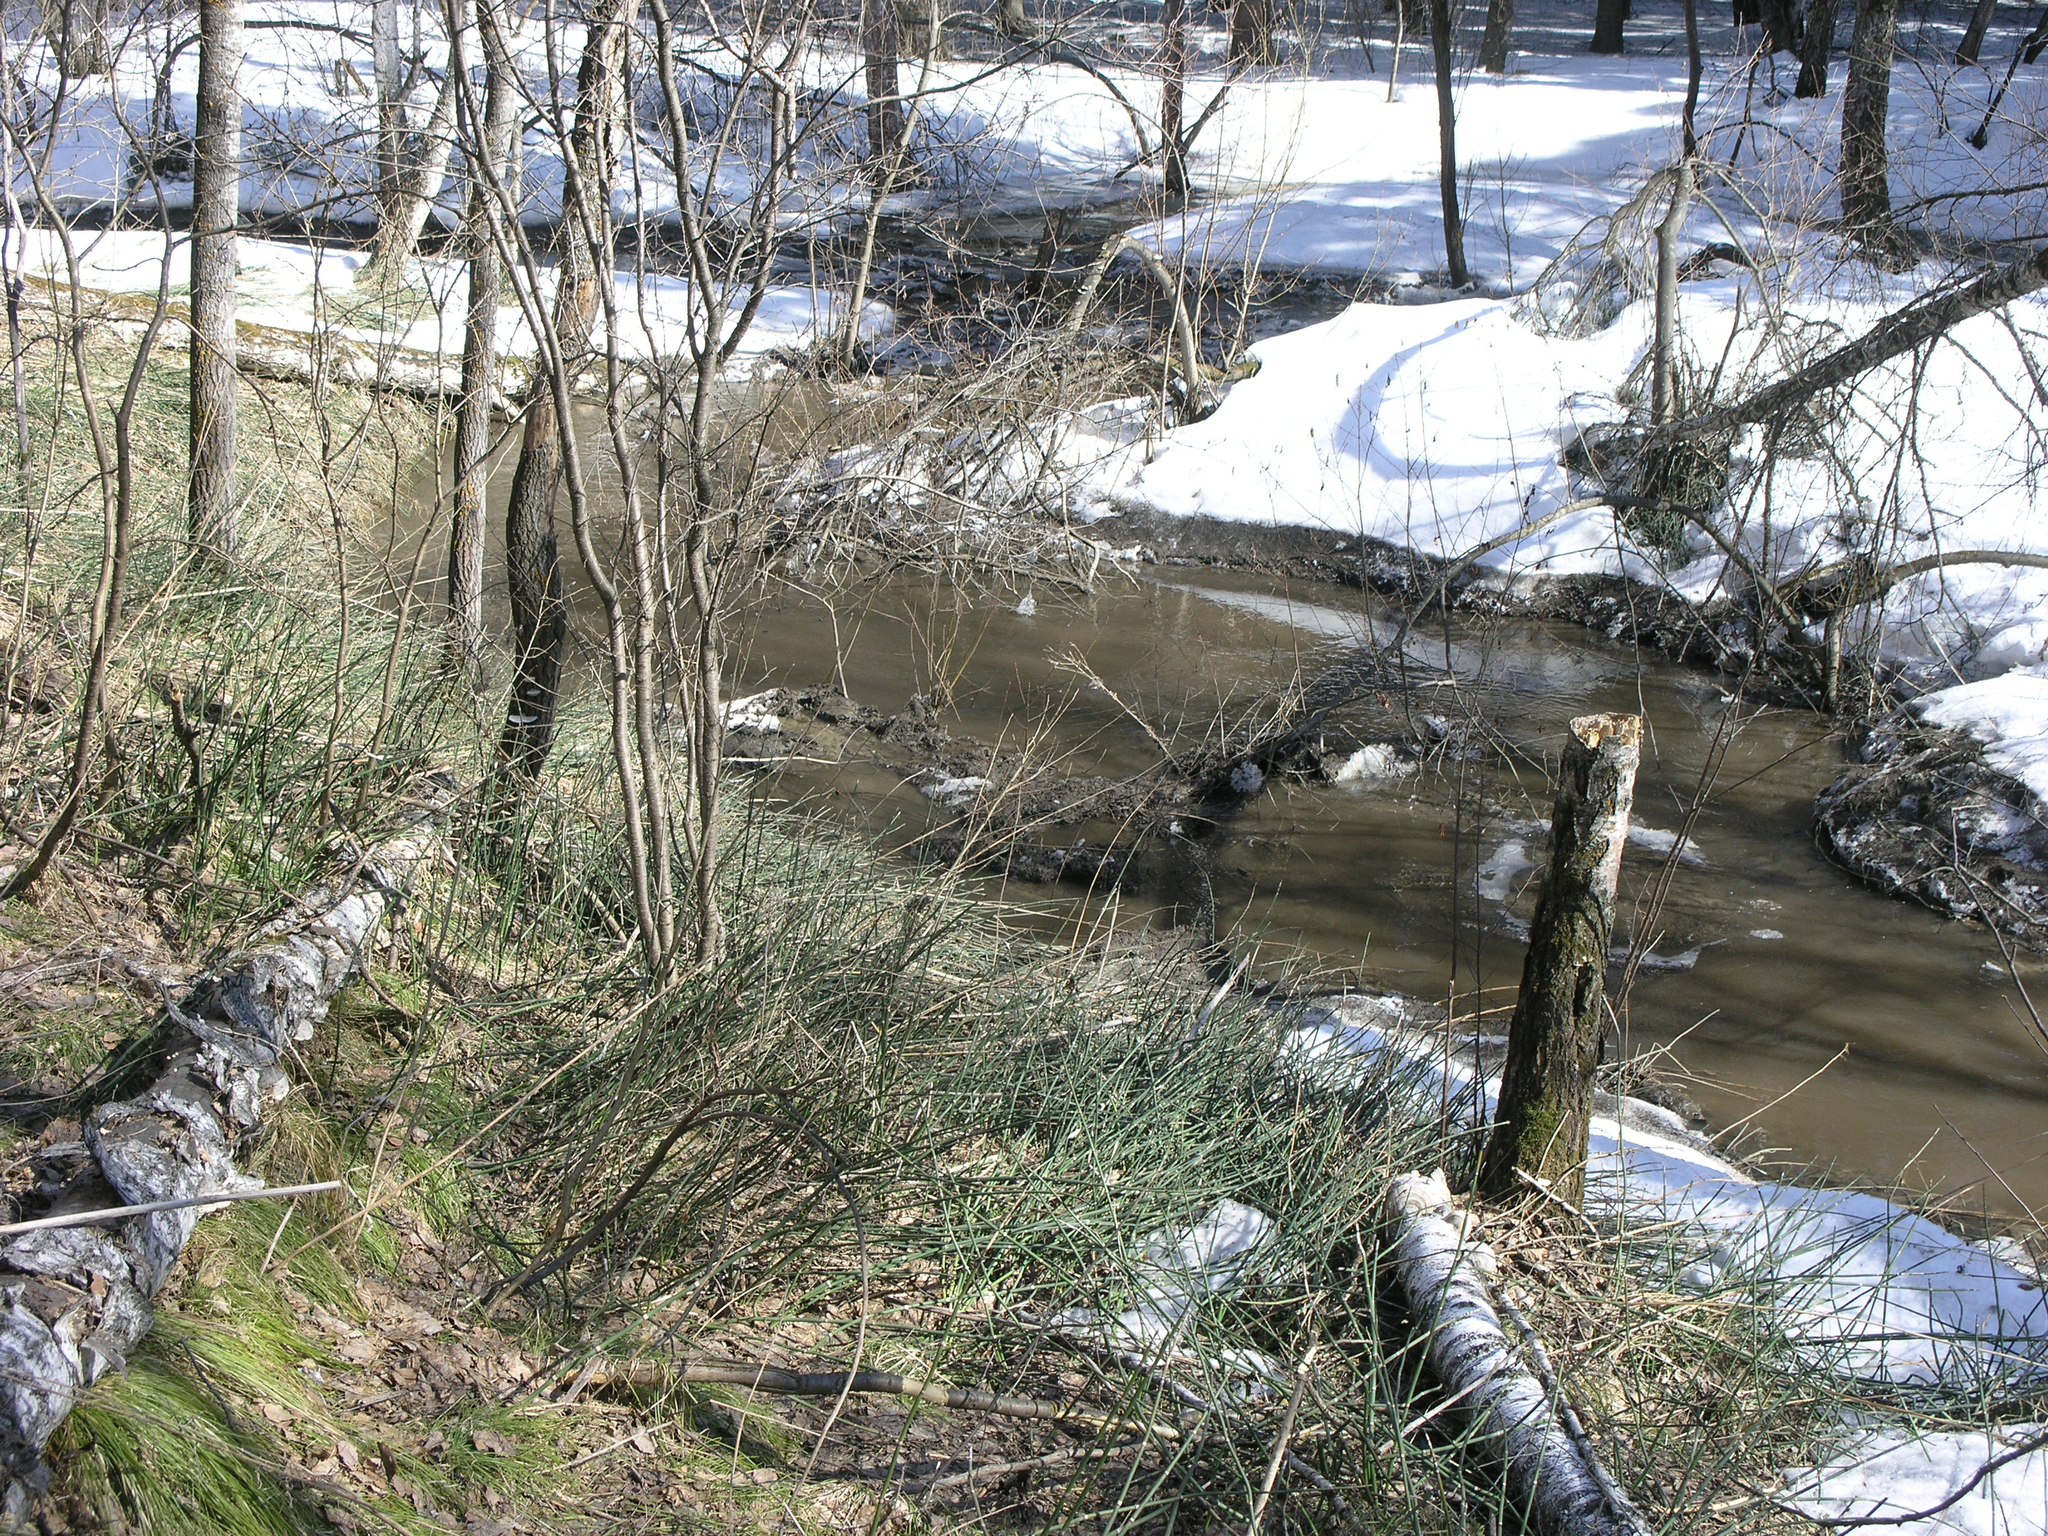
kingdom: Plantae
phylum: Tracheophyta
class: Polypodiopsida
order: Equisetales
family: Equisetaceae
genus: Equisetum
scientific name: Equisetum hyemale
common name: Rough horsetail
